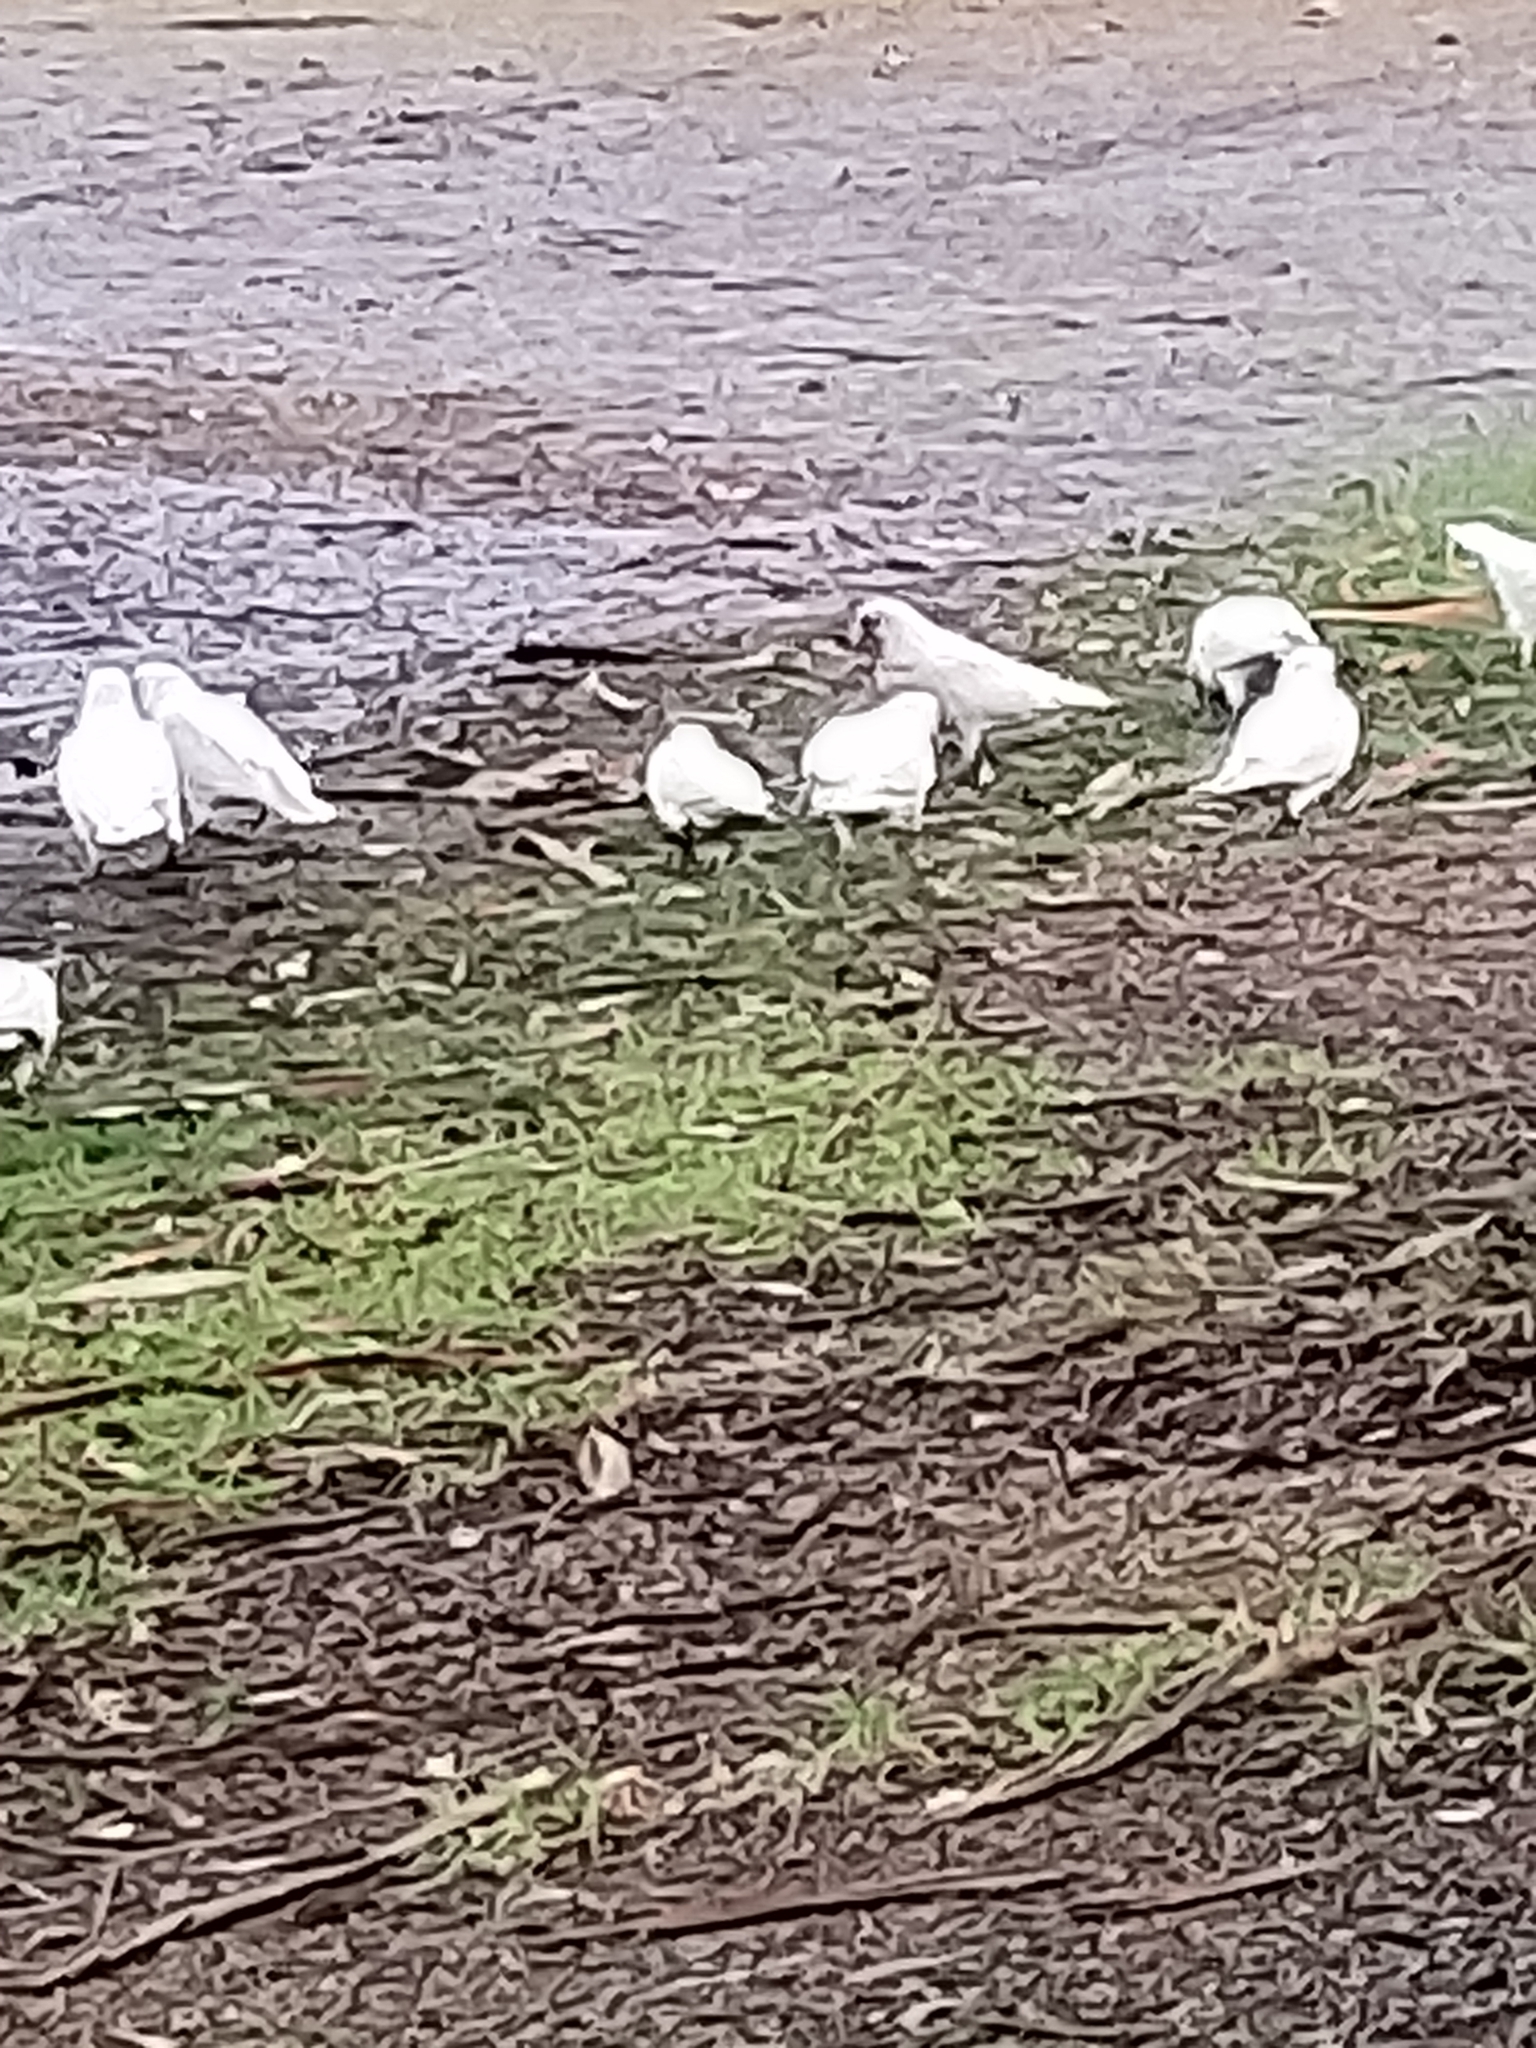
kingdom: Animalia
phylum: Chordata
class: Aves
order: Psittaciformes
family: Psittacidae
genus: Cacatua
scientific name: Cacatua sanguinea
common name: Little corella
